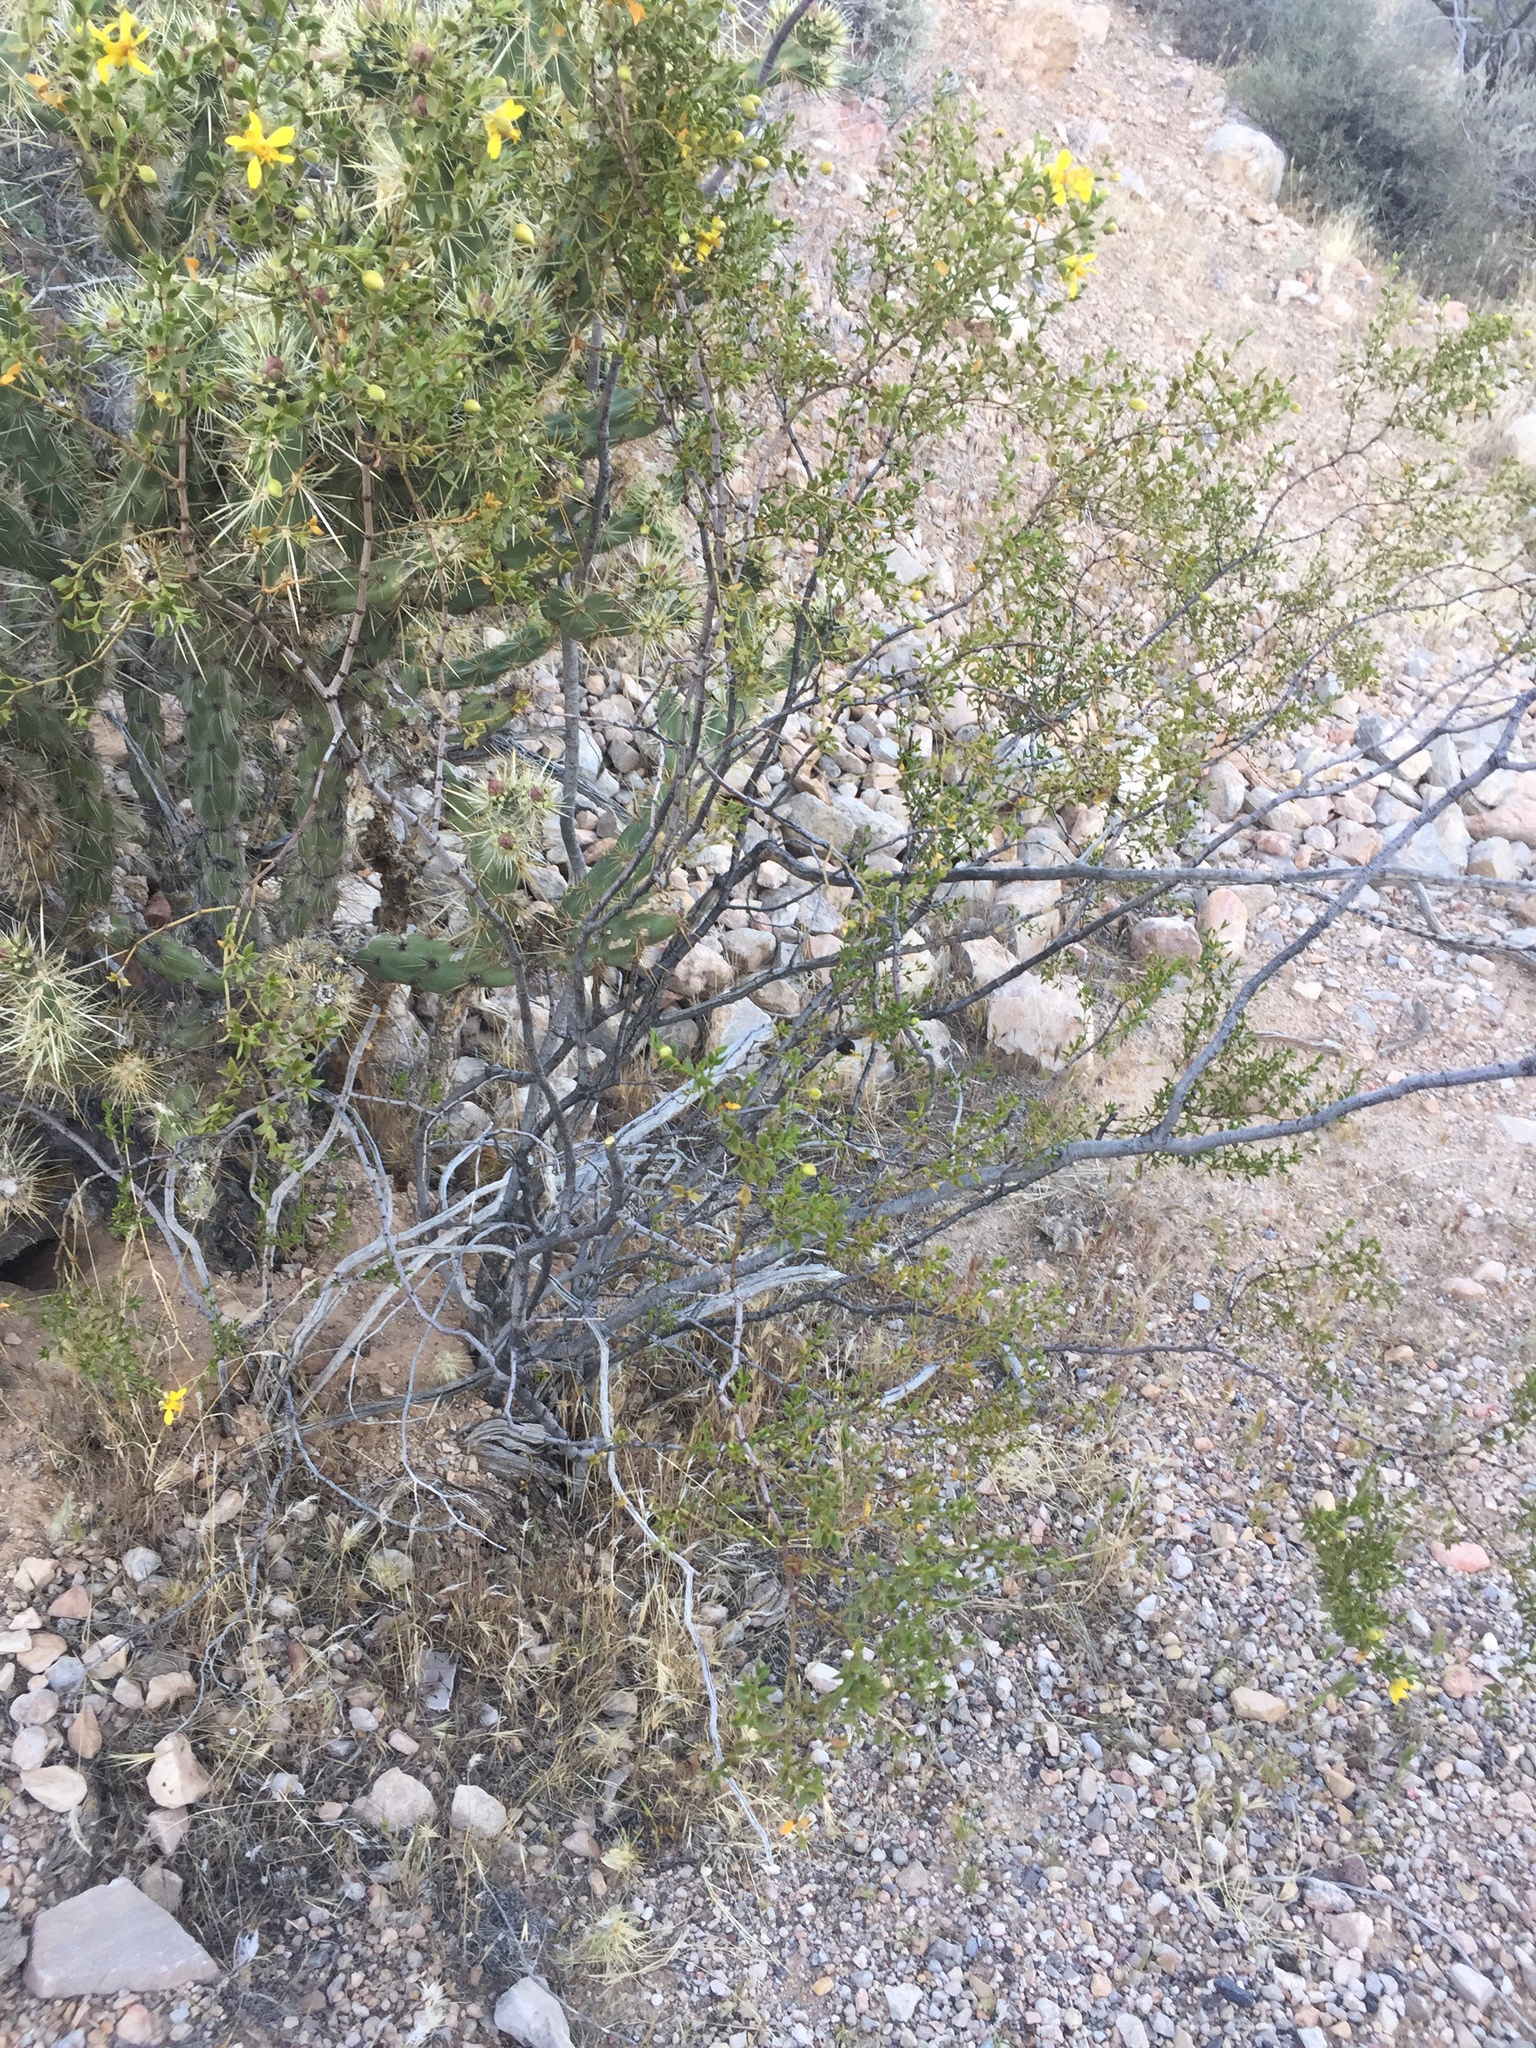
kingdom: Plantae
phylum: Tracheophyta
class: Magnoliopsida
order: Zygophyllales
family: Zygophyllaceae
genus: Larrea
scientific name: Larrea tridentata
